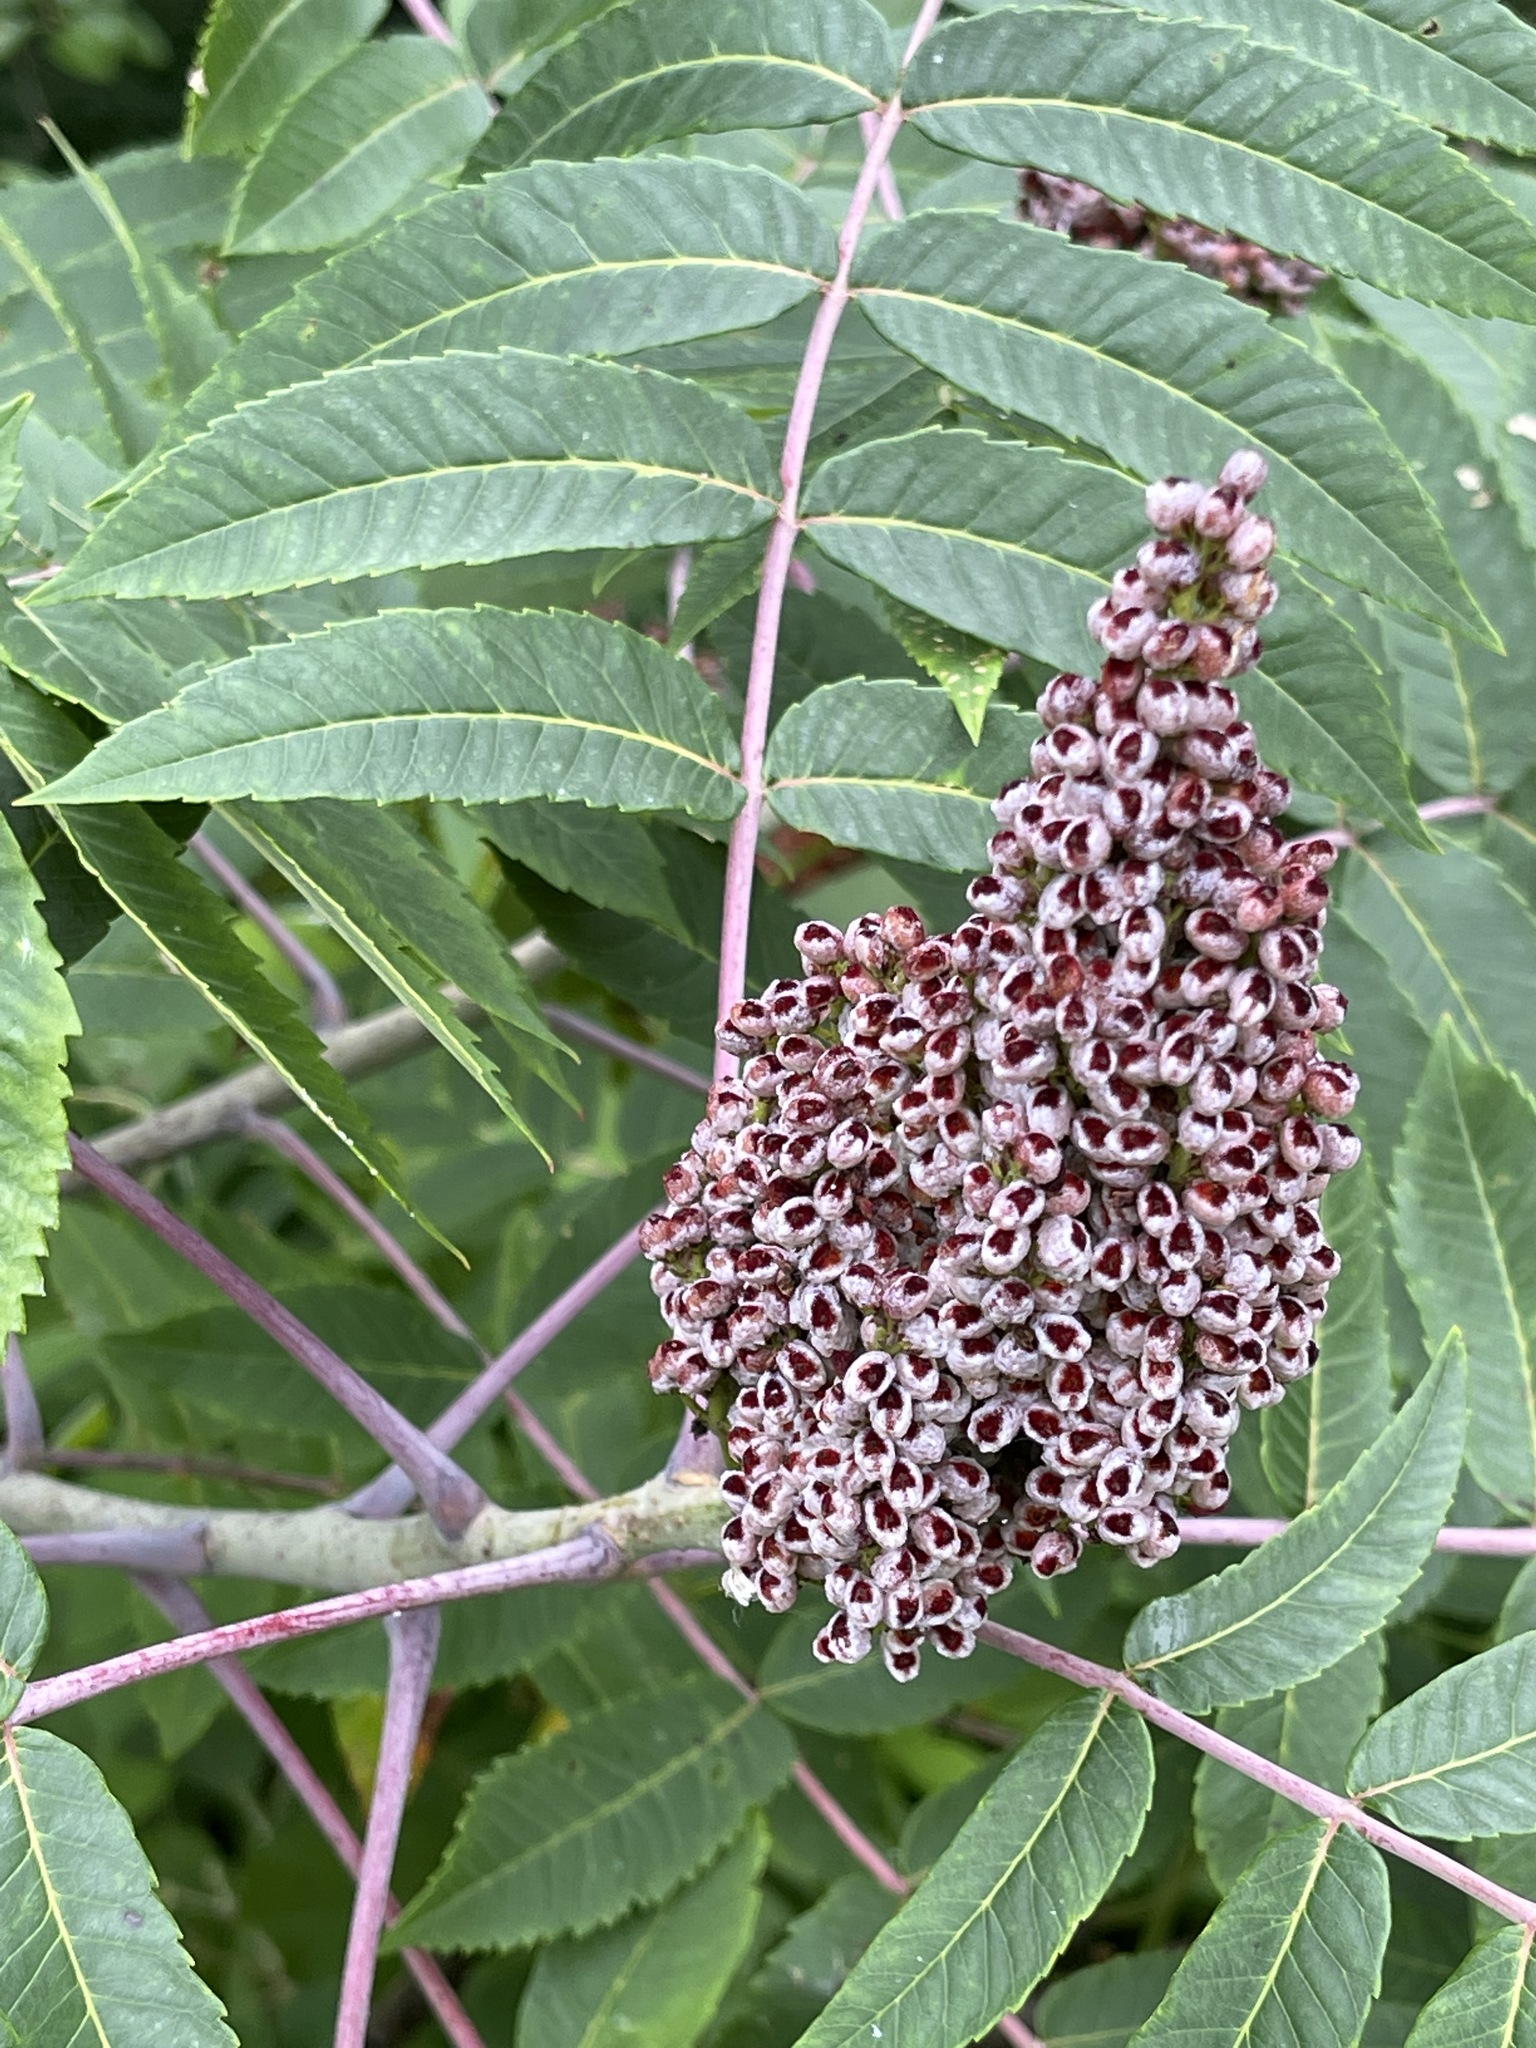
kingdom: Plantae
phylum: Tracheophyta
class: Magnoliopsida
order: Sapindales
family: Anacardiaceae
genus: Rhus
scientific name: Rhus glabra
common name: Scarlet sumac
